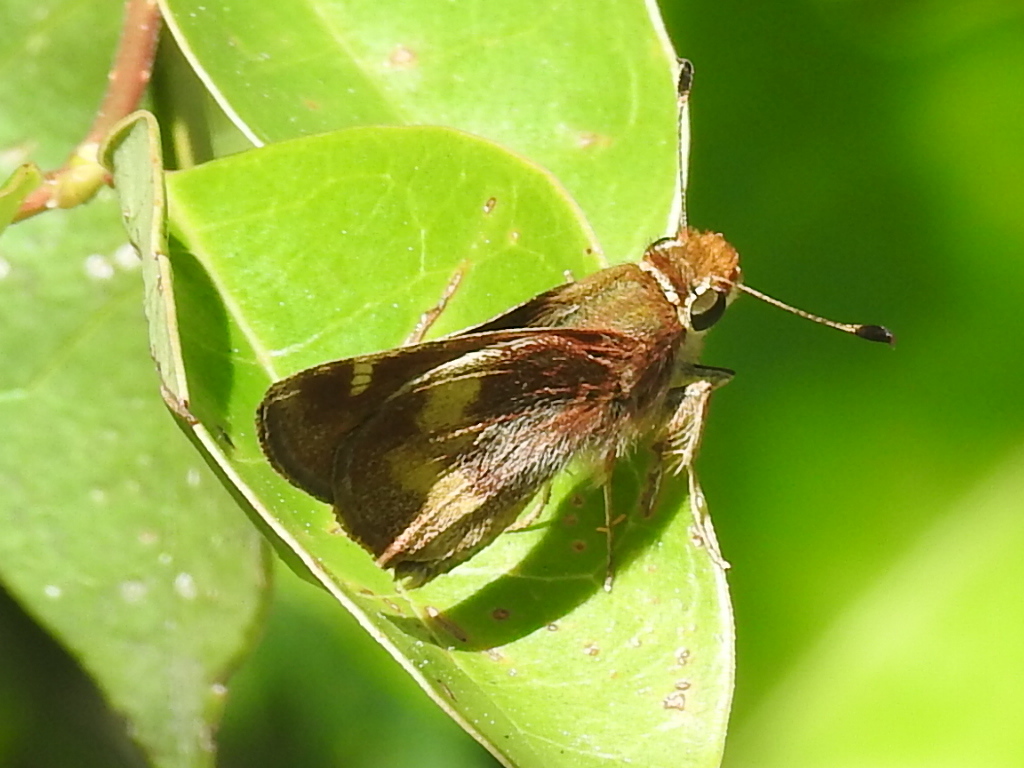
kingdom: Animalia
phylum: Arthropoda
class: Insecta
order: Lepidoptera
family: Hesperiidae
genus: Lon
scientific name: Lon melane
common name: Umber skipper
